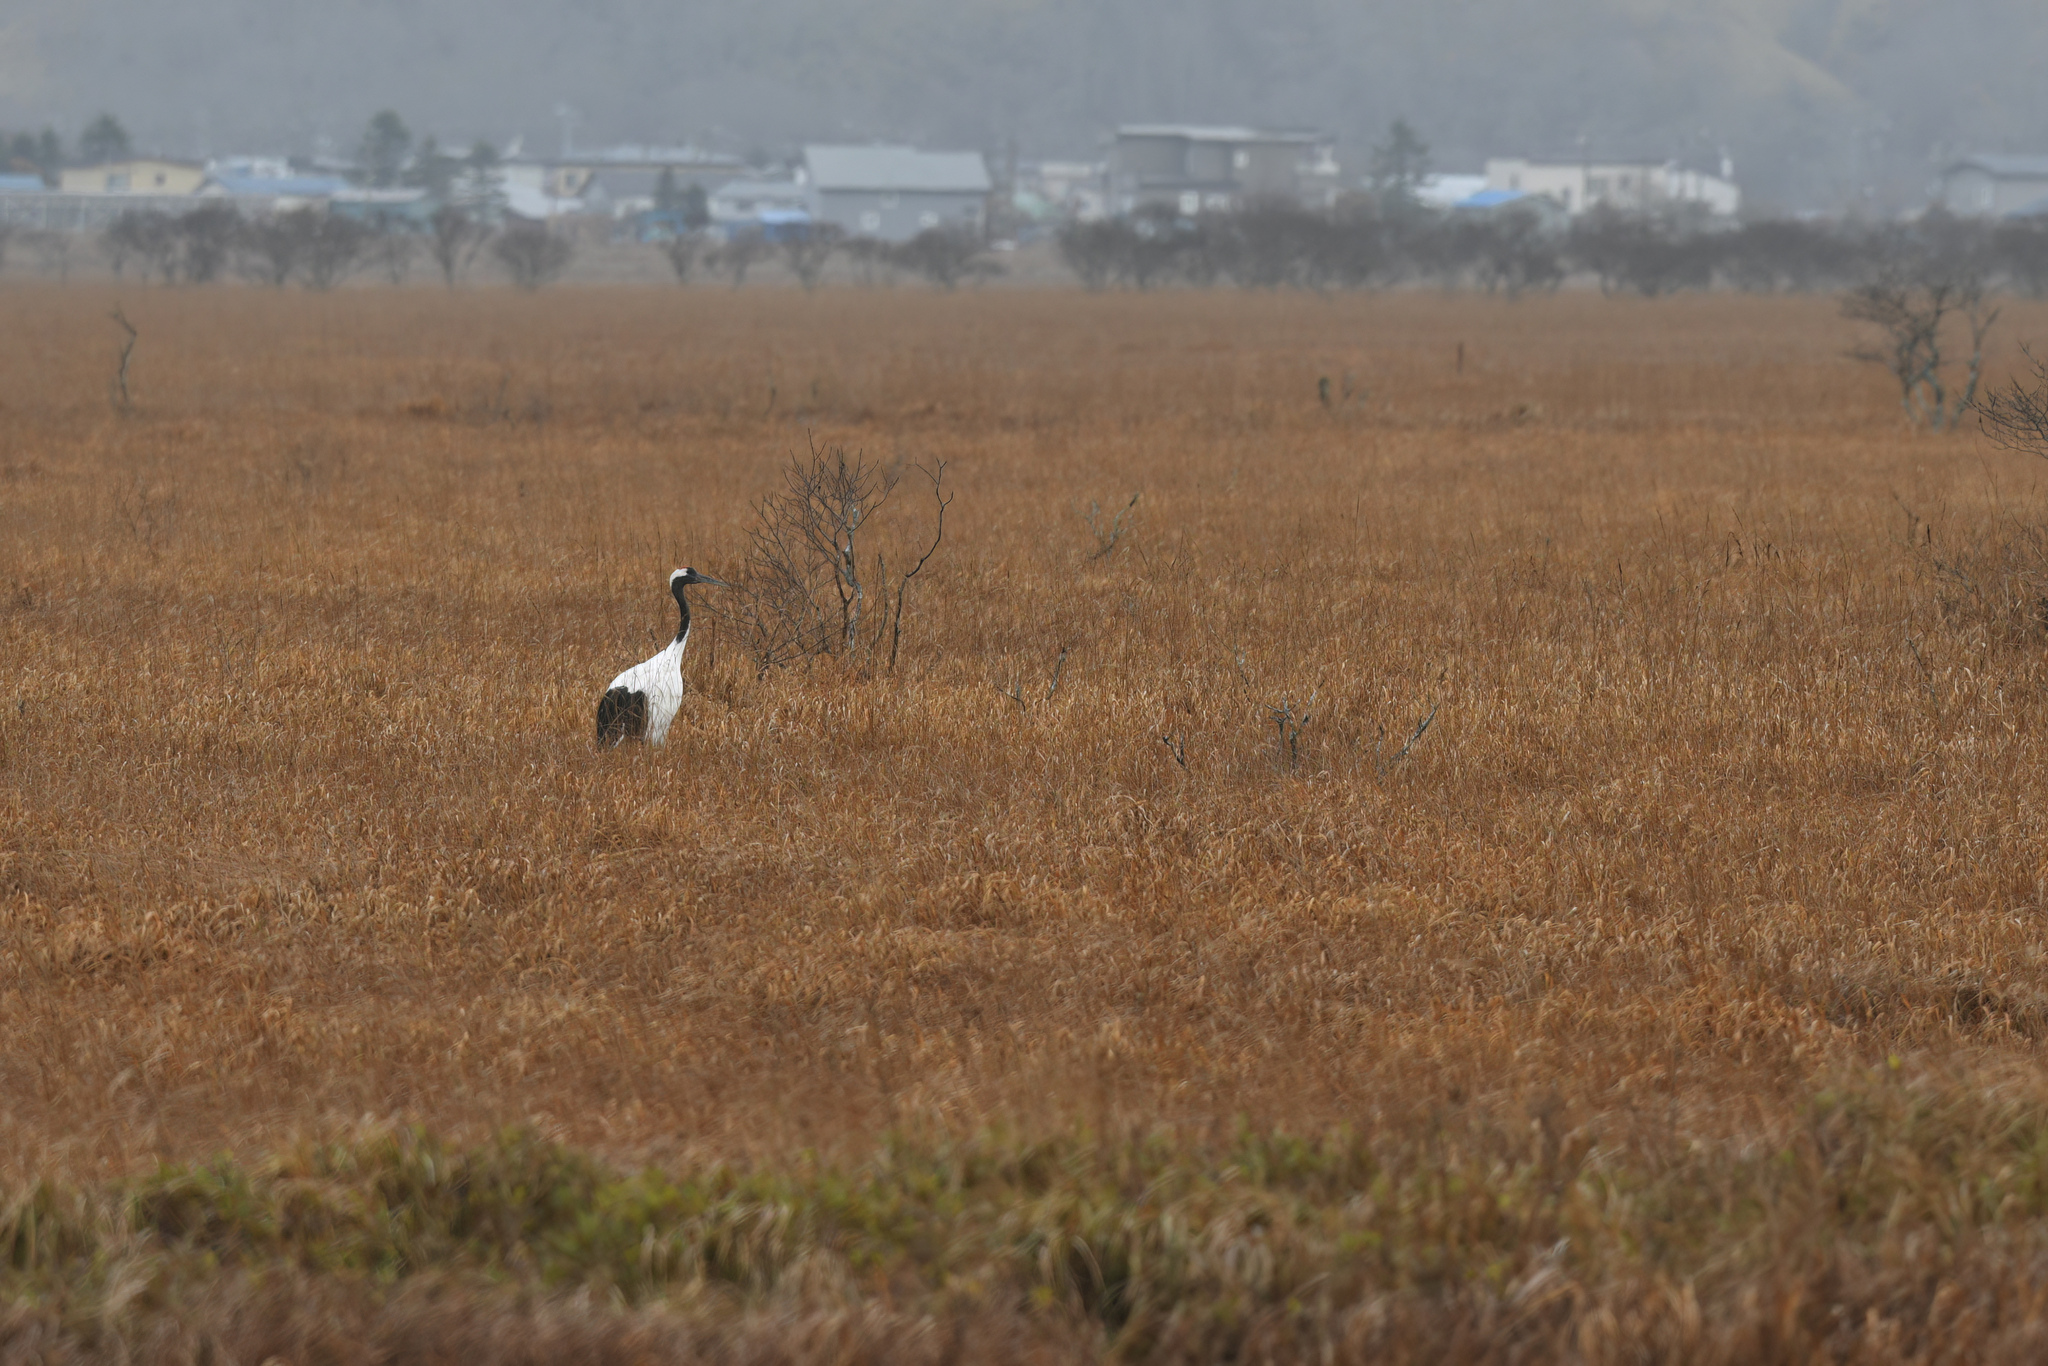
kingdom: Animalia
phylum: Chordata
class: Aves
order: Gruiformes
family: Gruidae
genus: Grus
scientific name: Grus japonensis
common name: Red-crowned crane
